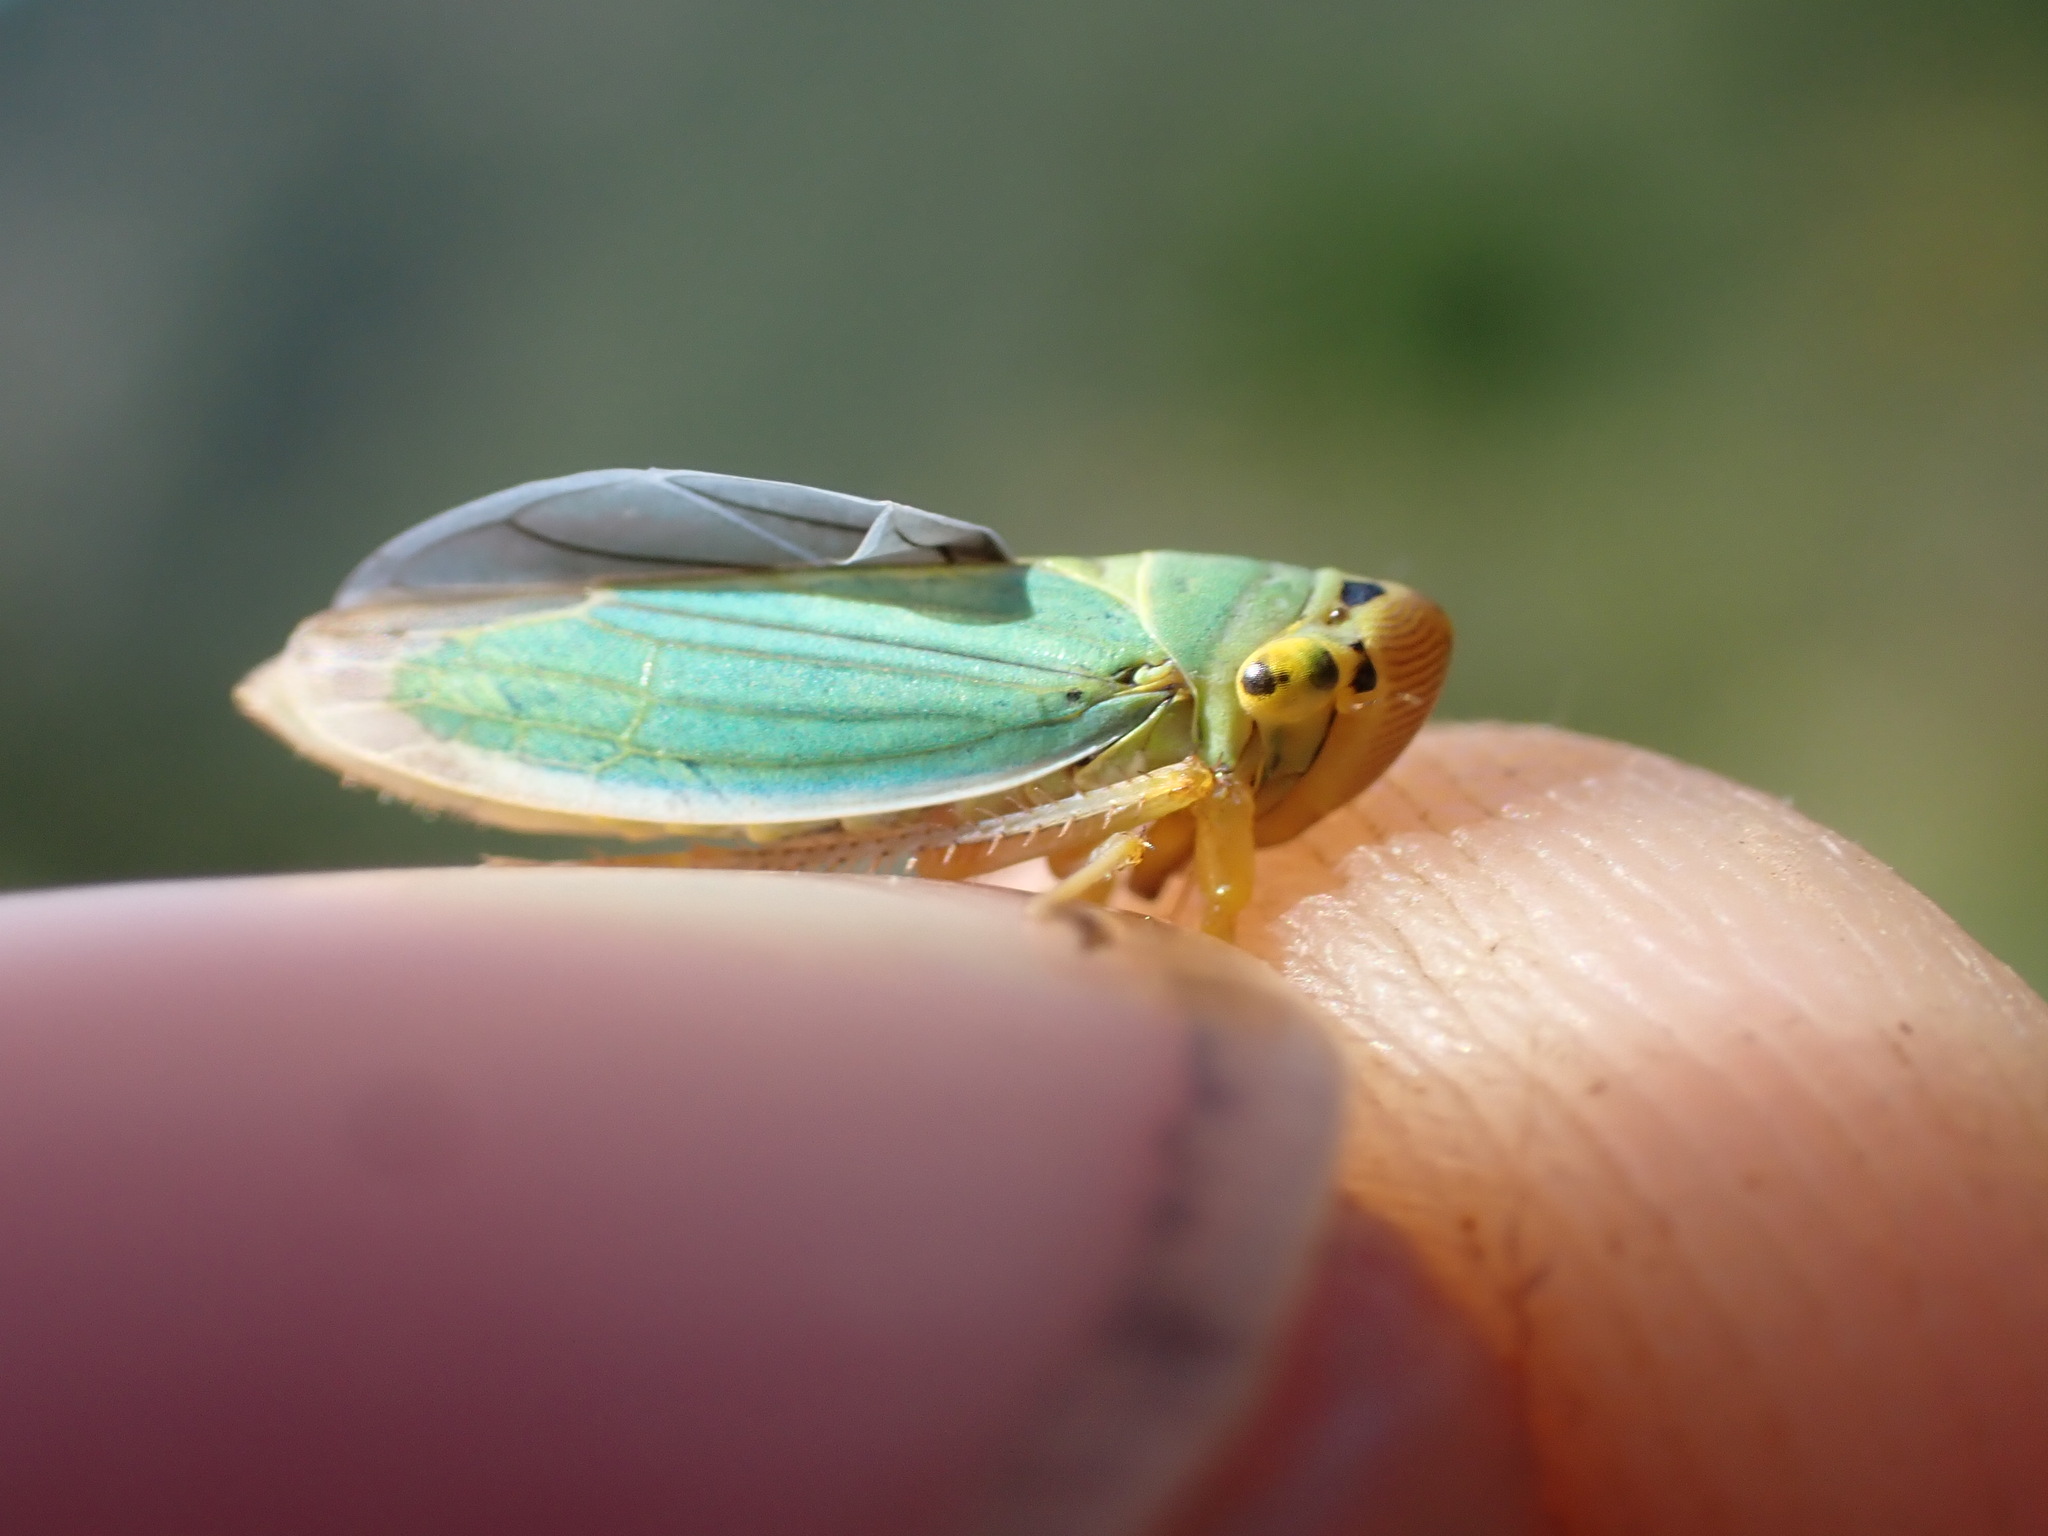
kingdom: Animalia
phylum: Arthropoda
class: Insecta
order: Hemiptera
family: Cicadellidae
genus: Cicadella
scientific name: Cicadella viridis
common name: Leafhopper
